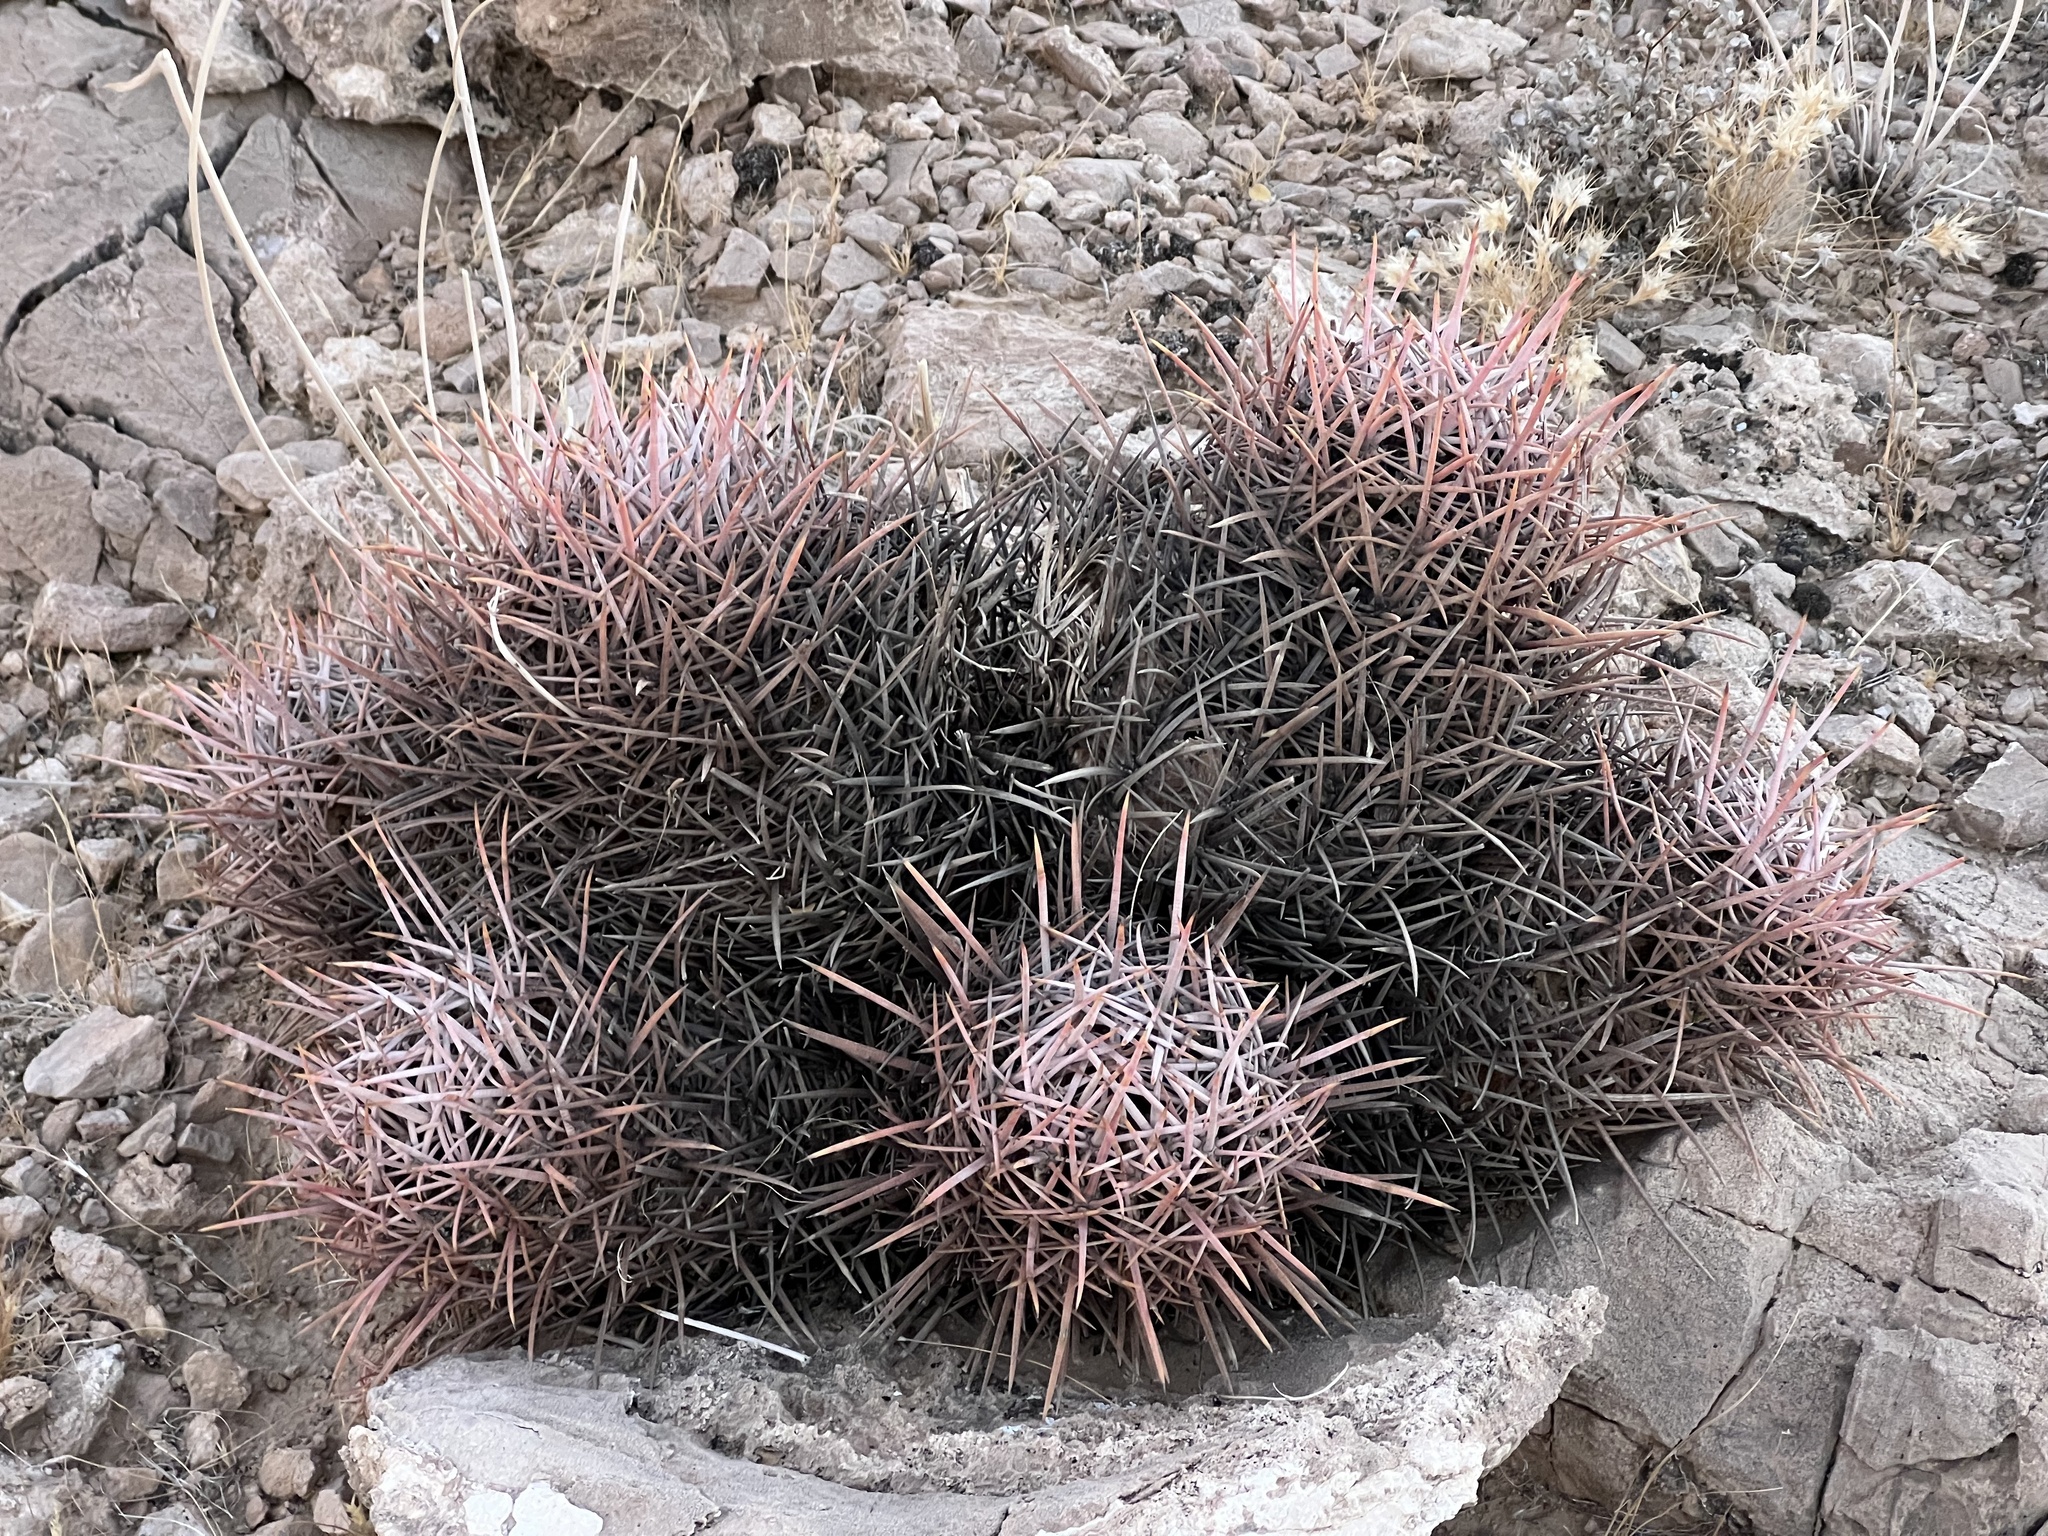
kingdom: Plantae
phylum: Tracheophyta
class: Magnoliopsida
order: Caryophyllales
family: Cactaceae
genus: Echinocactus
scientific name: Echinocactus polycephalus
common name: Cottontop cactus
